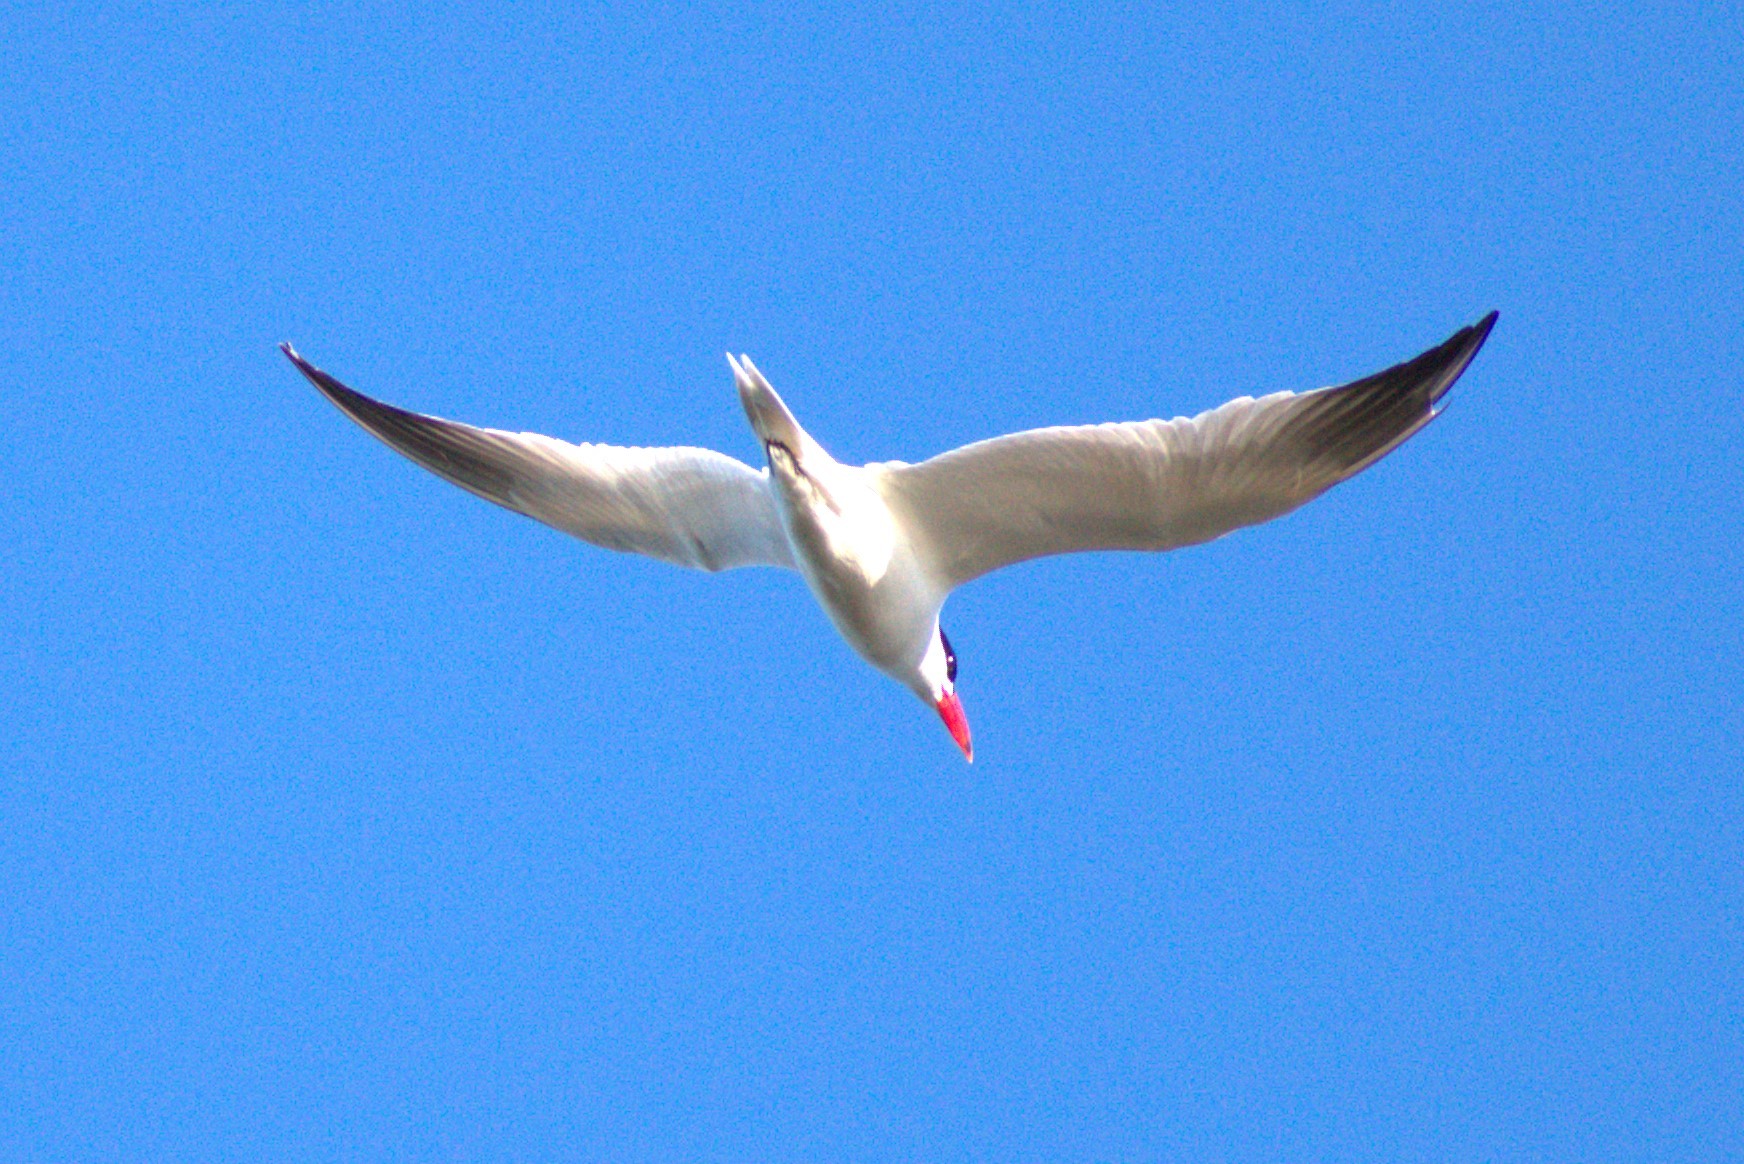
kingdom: Animalia
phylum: Chordata
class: Aves
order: Charadriiformes
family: Laridae
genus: Hydroprogne
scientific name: Hydroprogne caspia
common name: Caspian tern
